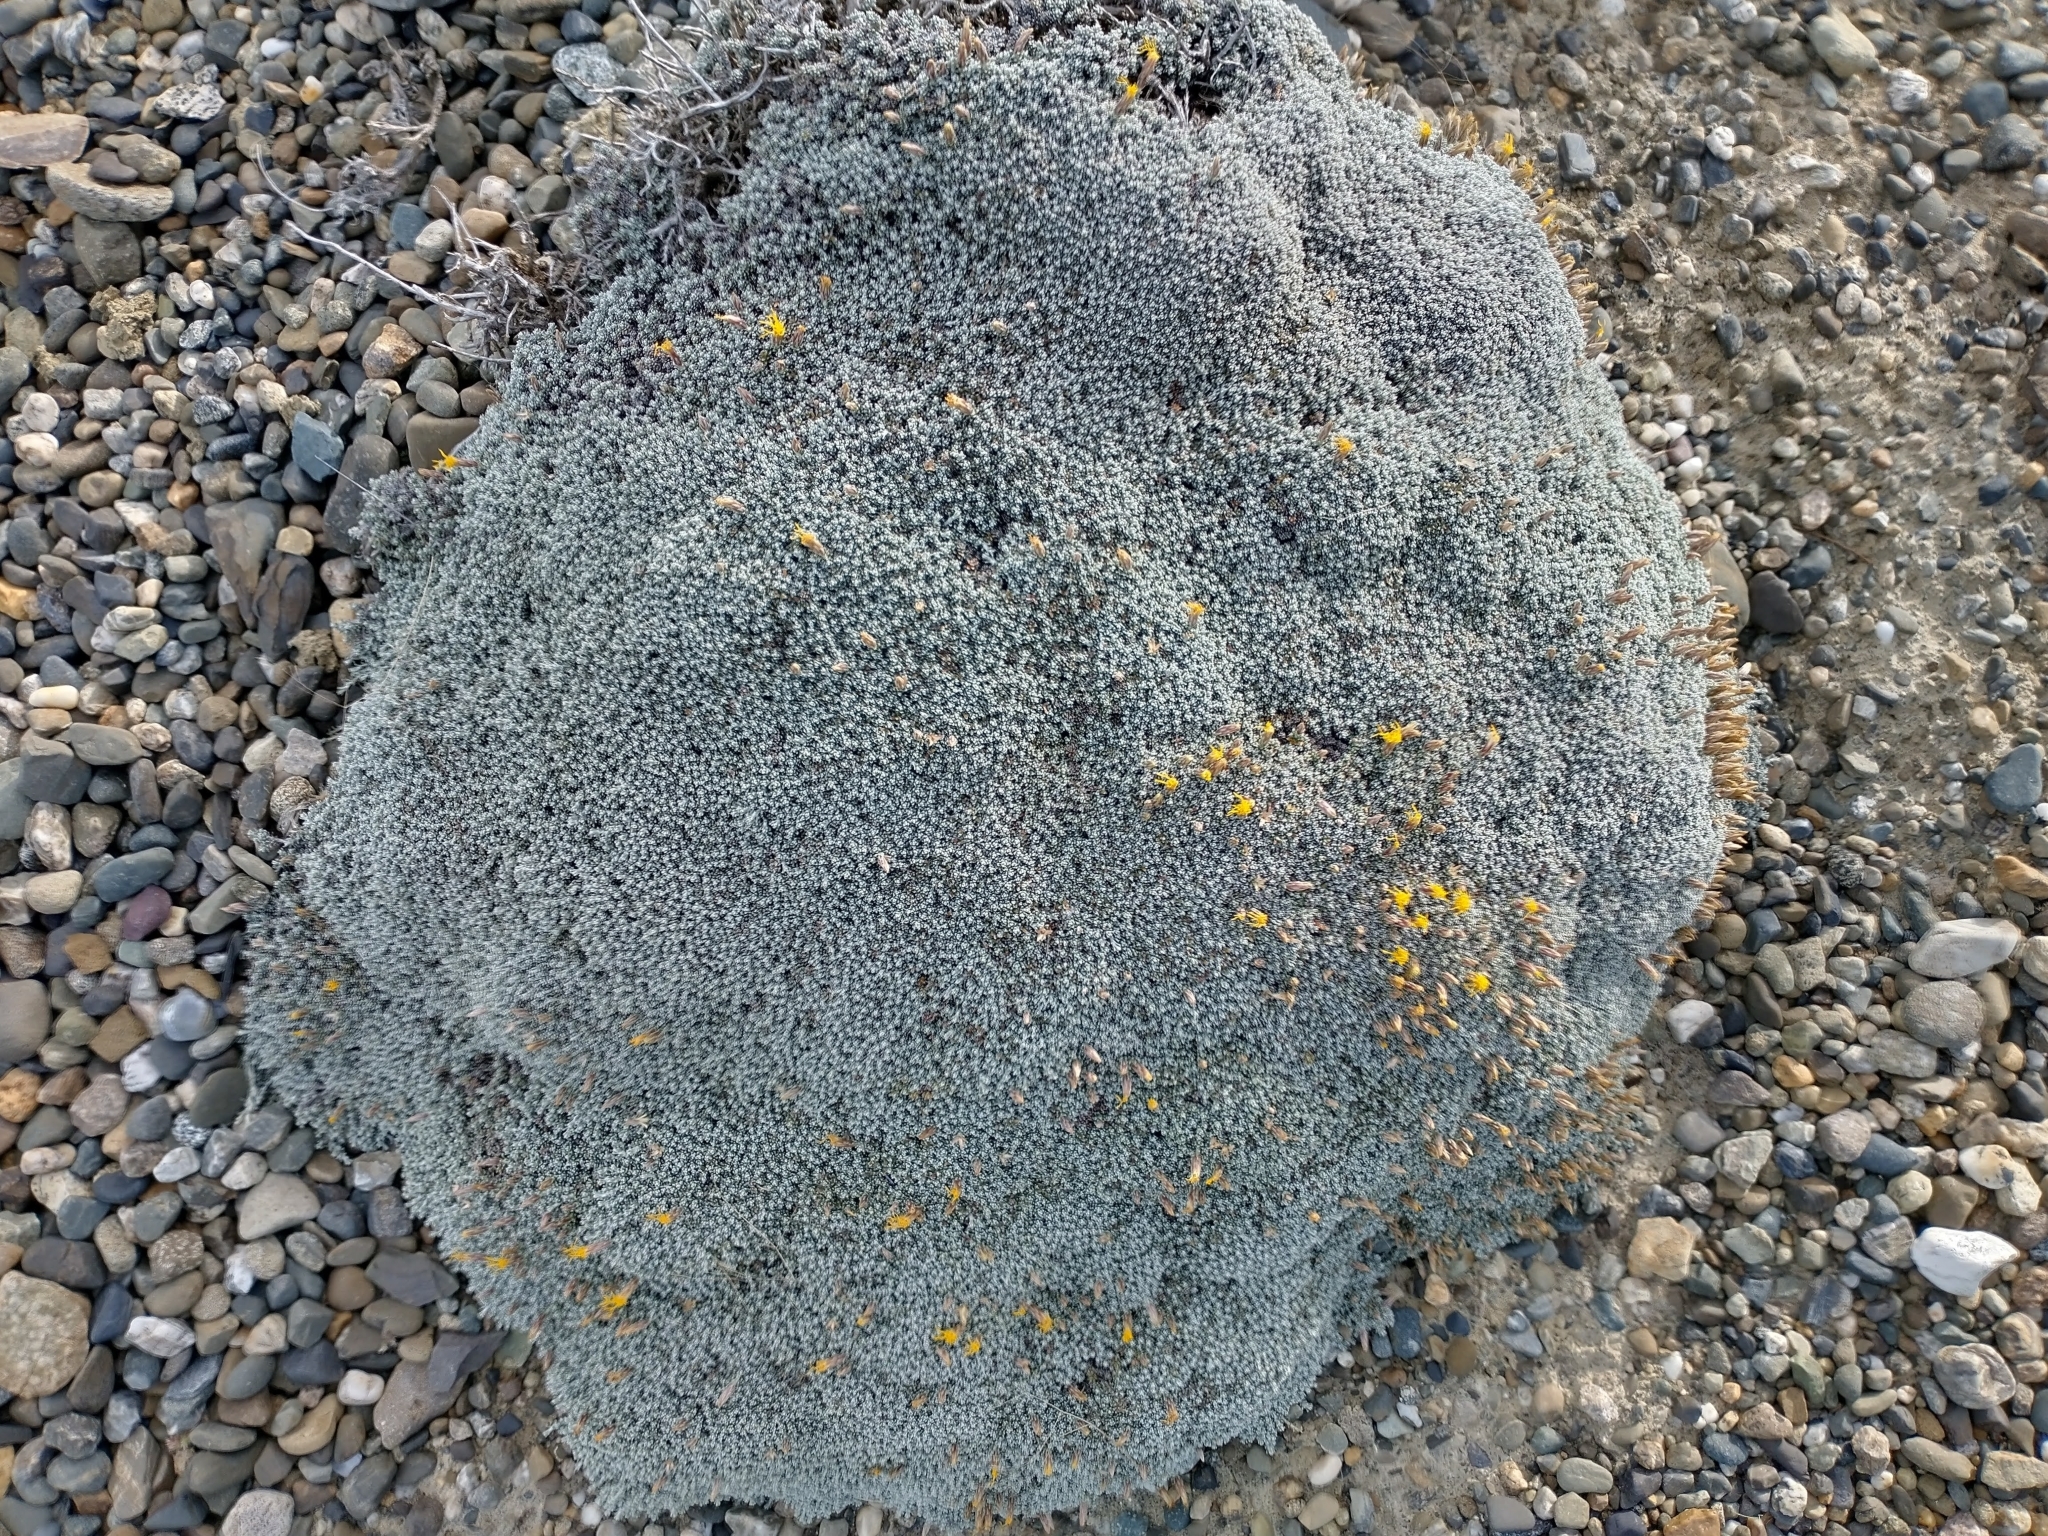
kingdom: Plantae
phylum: Tracheophyta
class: Magnoliopsida
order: Asterales
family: Asteraceae
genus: Nardophyllum
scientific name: Nardophyllum bryoides
